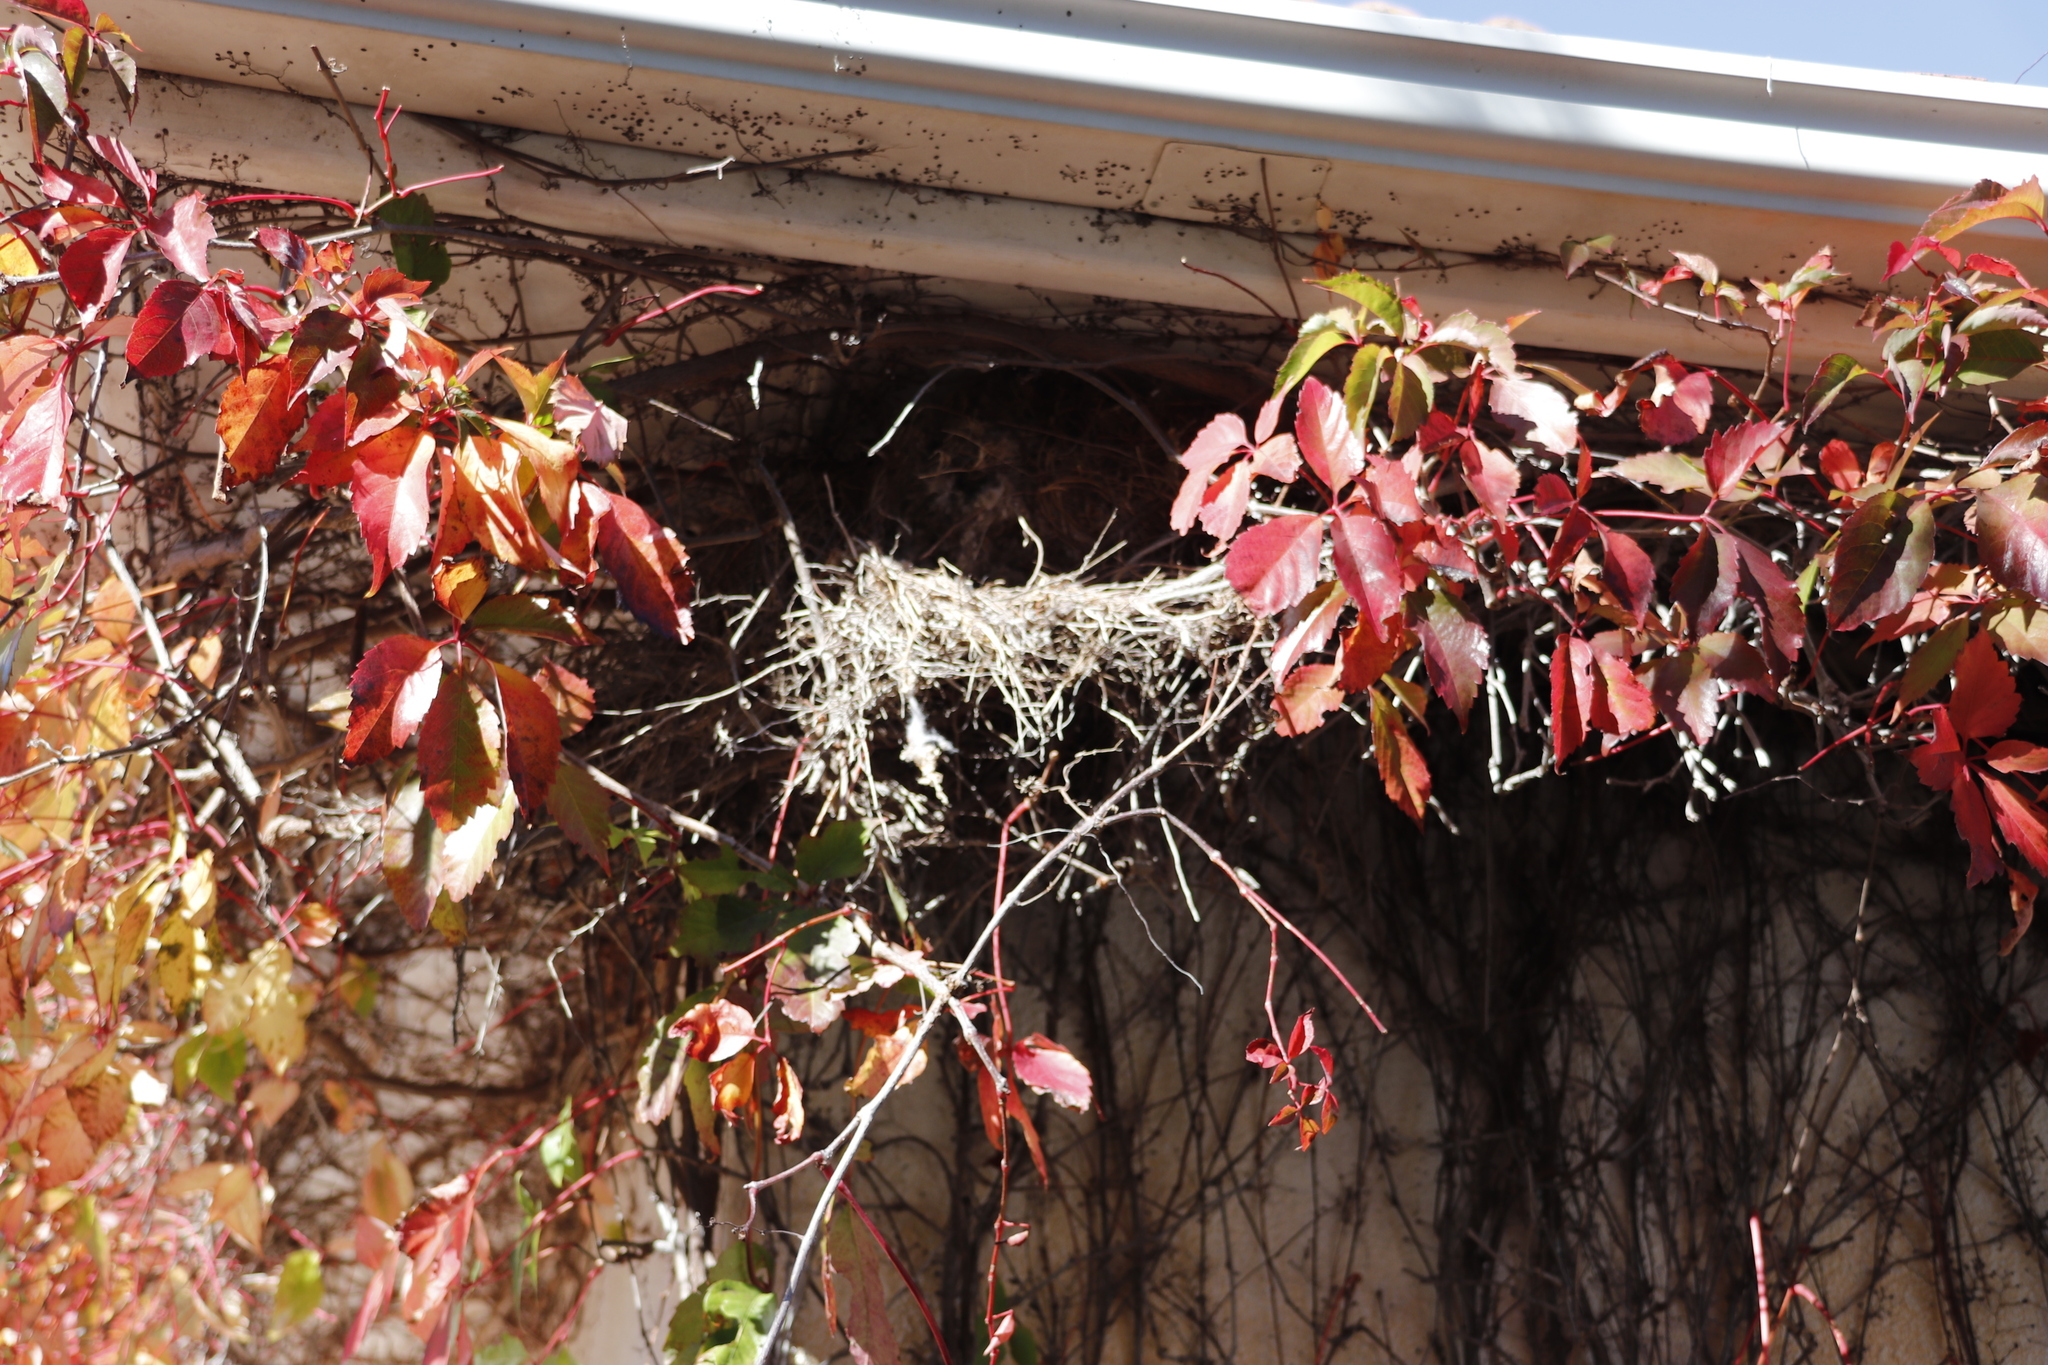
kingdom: Animalia
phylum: Chordata
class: Aves
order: Passeriformes
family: Passeridae
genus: Passer
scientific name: Passer melanurus
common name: Cape sparrow
